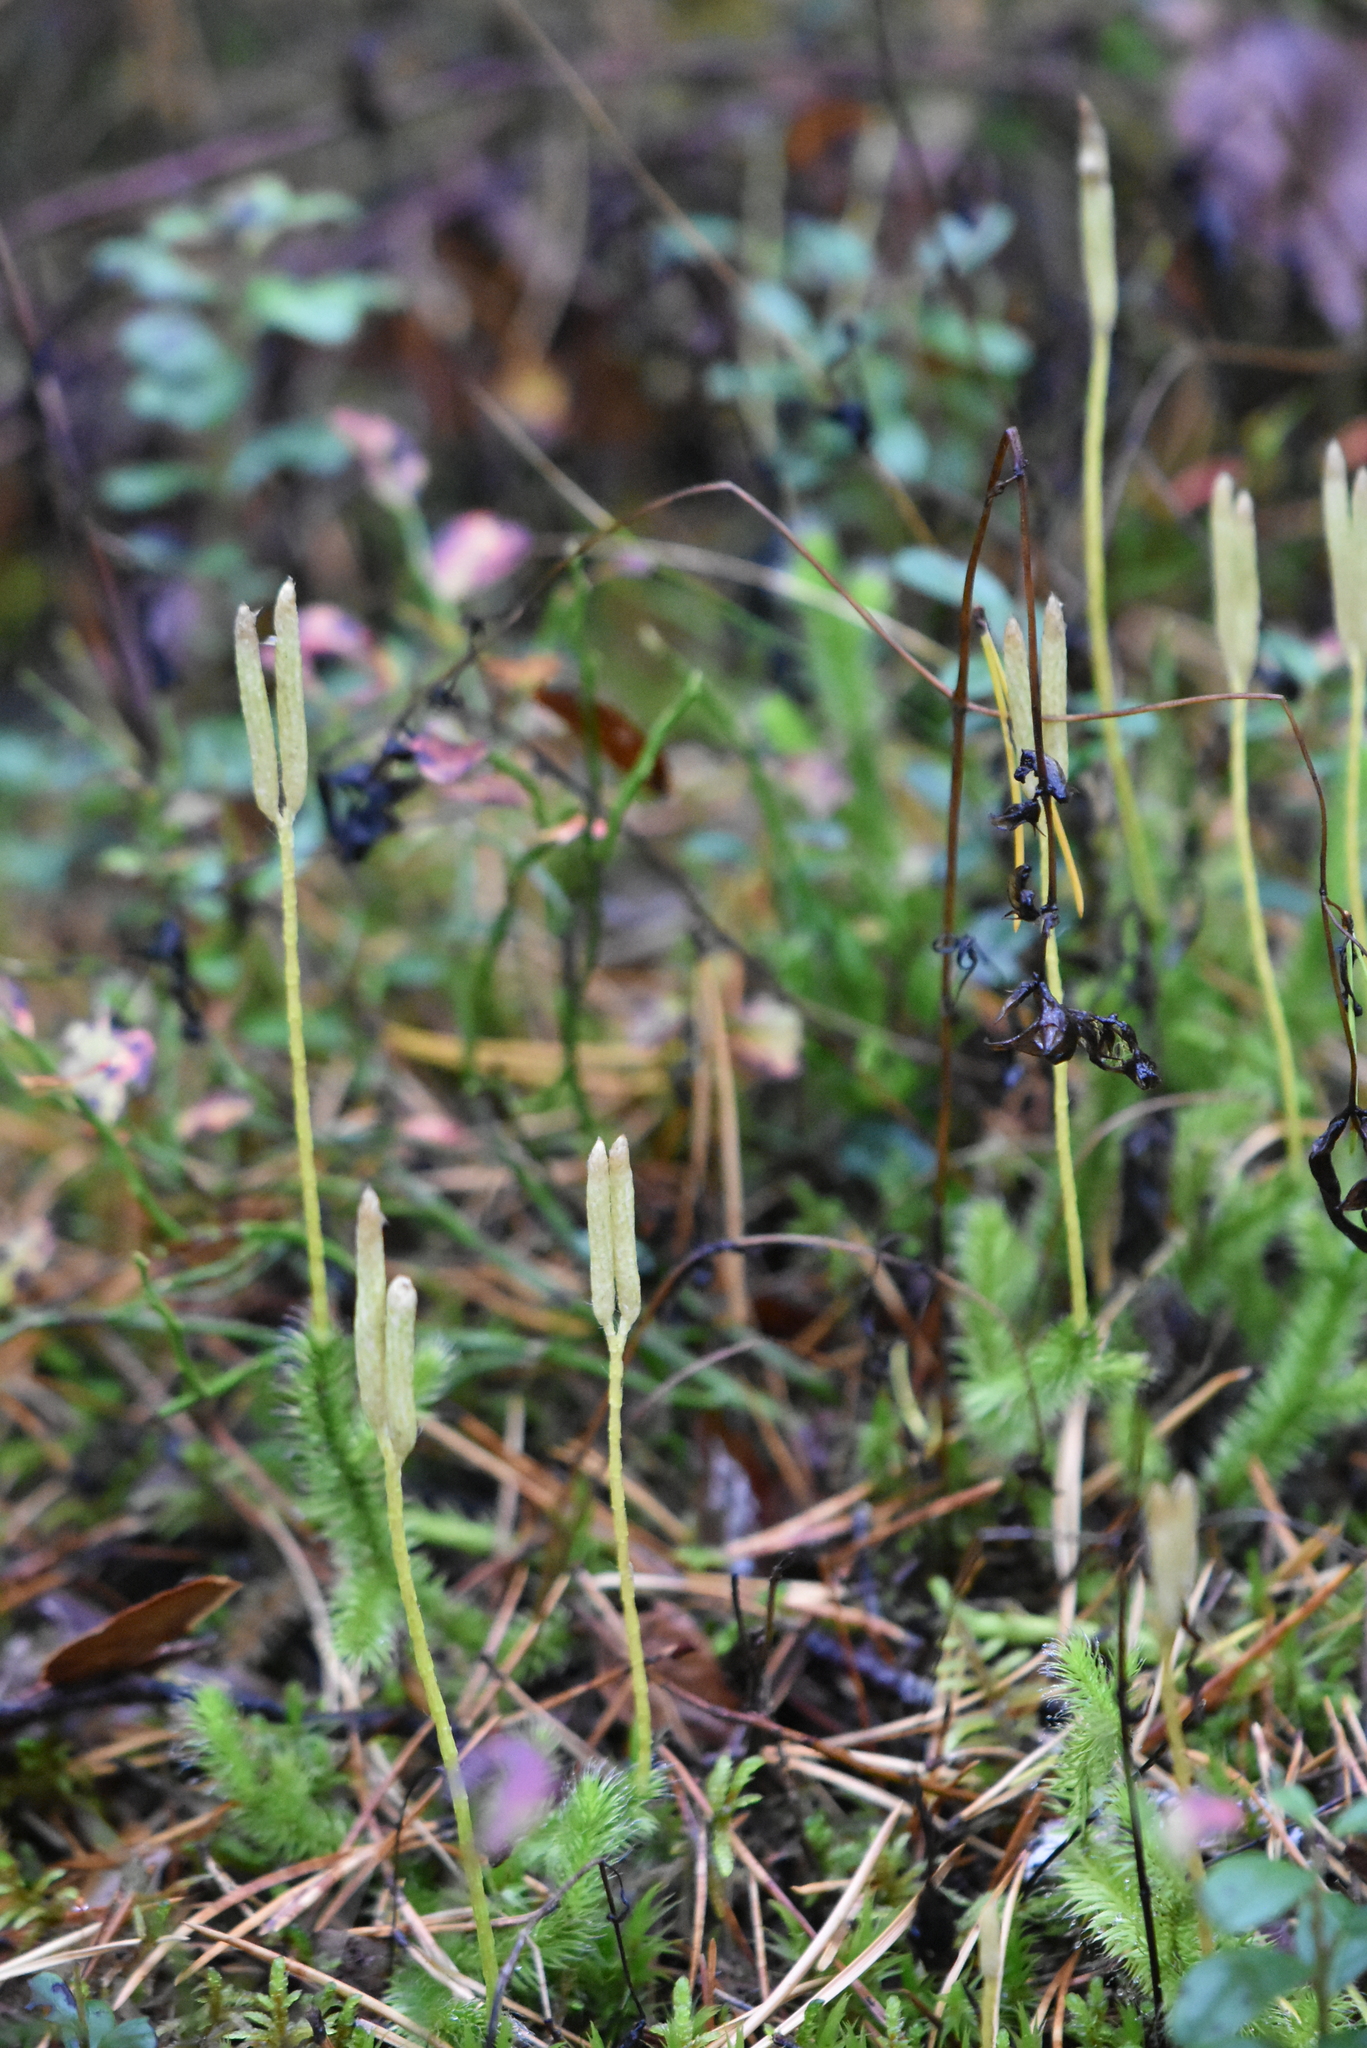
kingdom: Plantae
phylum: Tracheophyta
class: Lycopodiopsida
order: Lycopodiales
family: Lycopodiaceae
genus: Lycopodium
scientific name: Lycopodium clavatum
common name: Stag's-horn clubmoss
